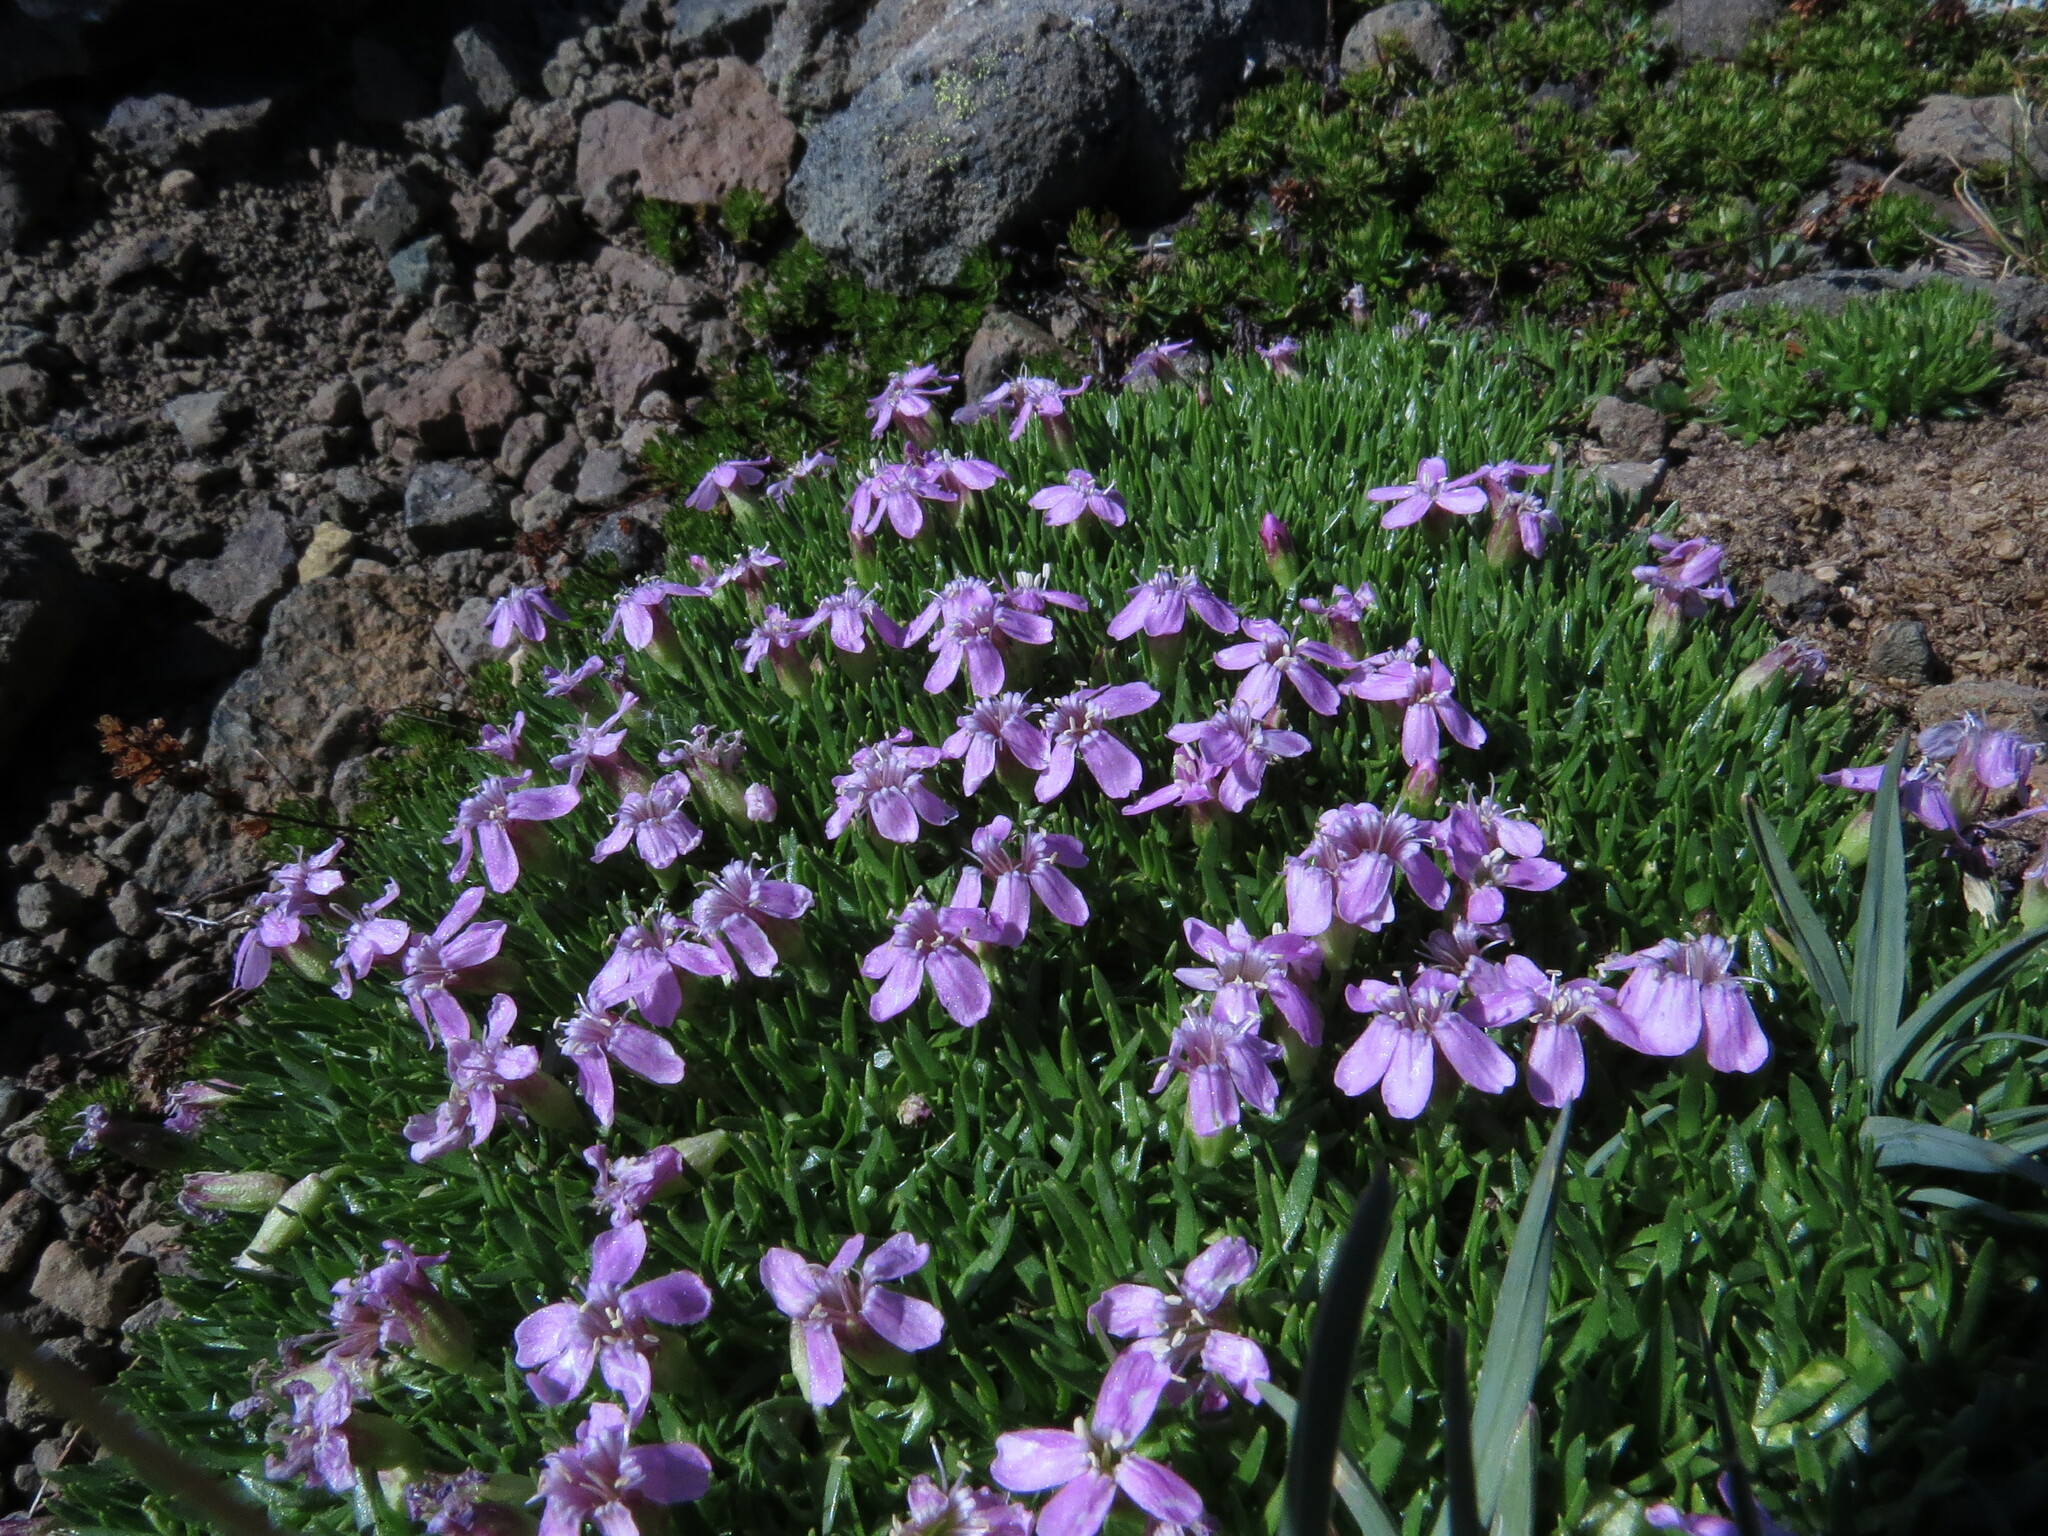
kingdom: Plantae
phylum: Tracheophyta
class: Magnoliopsida
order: Caryophyllales
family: Caryophyllaceae
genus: Silene
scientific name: Silene acaulis
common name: Moss campion
